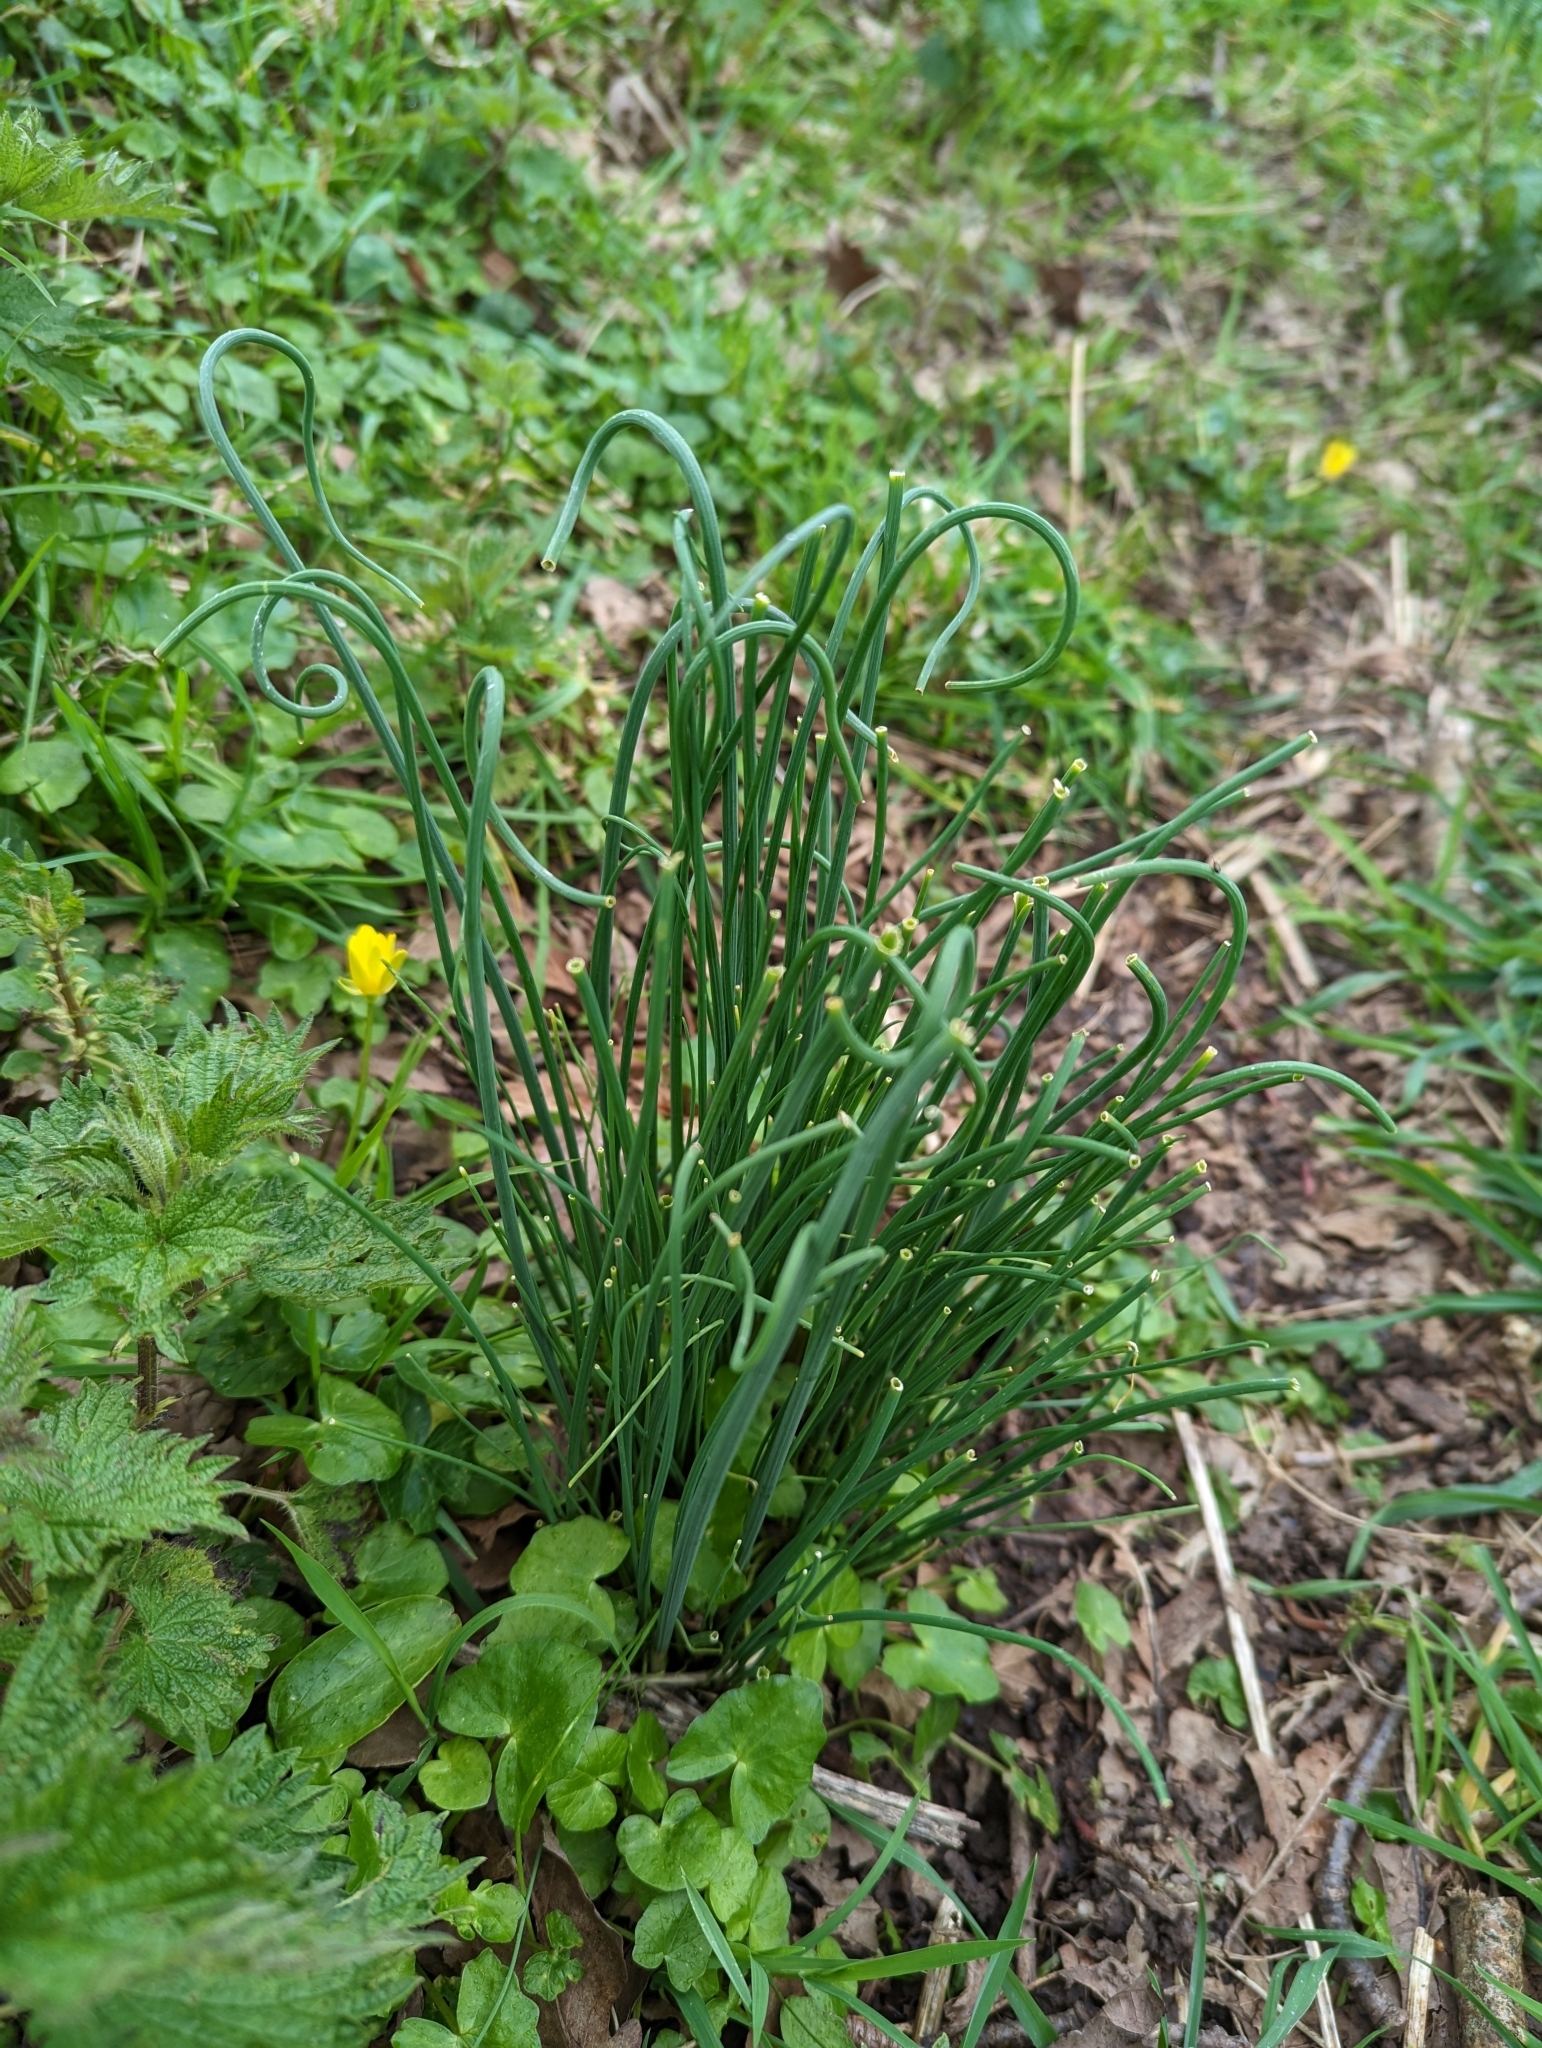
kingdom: Plantae
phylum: Tracheophyta
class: Liliopsida
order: Asparagales
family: Amaryllidaceae
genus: Allium
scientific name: Allium vineale
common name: Crow garlic
